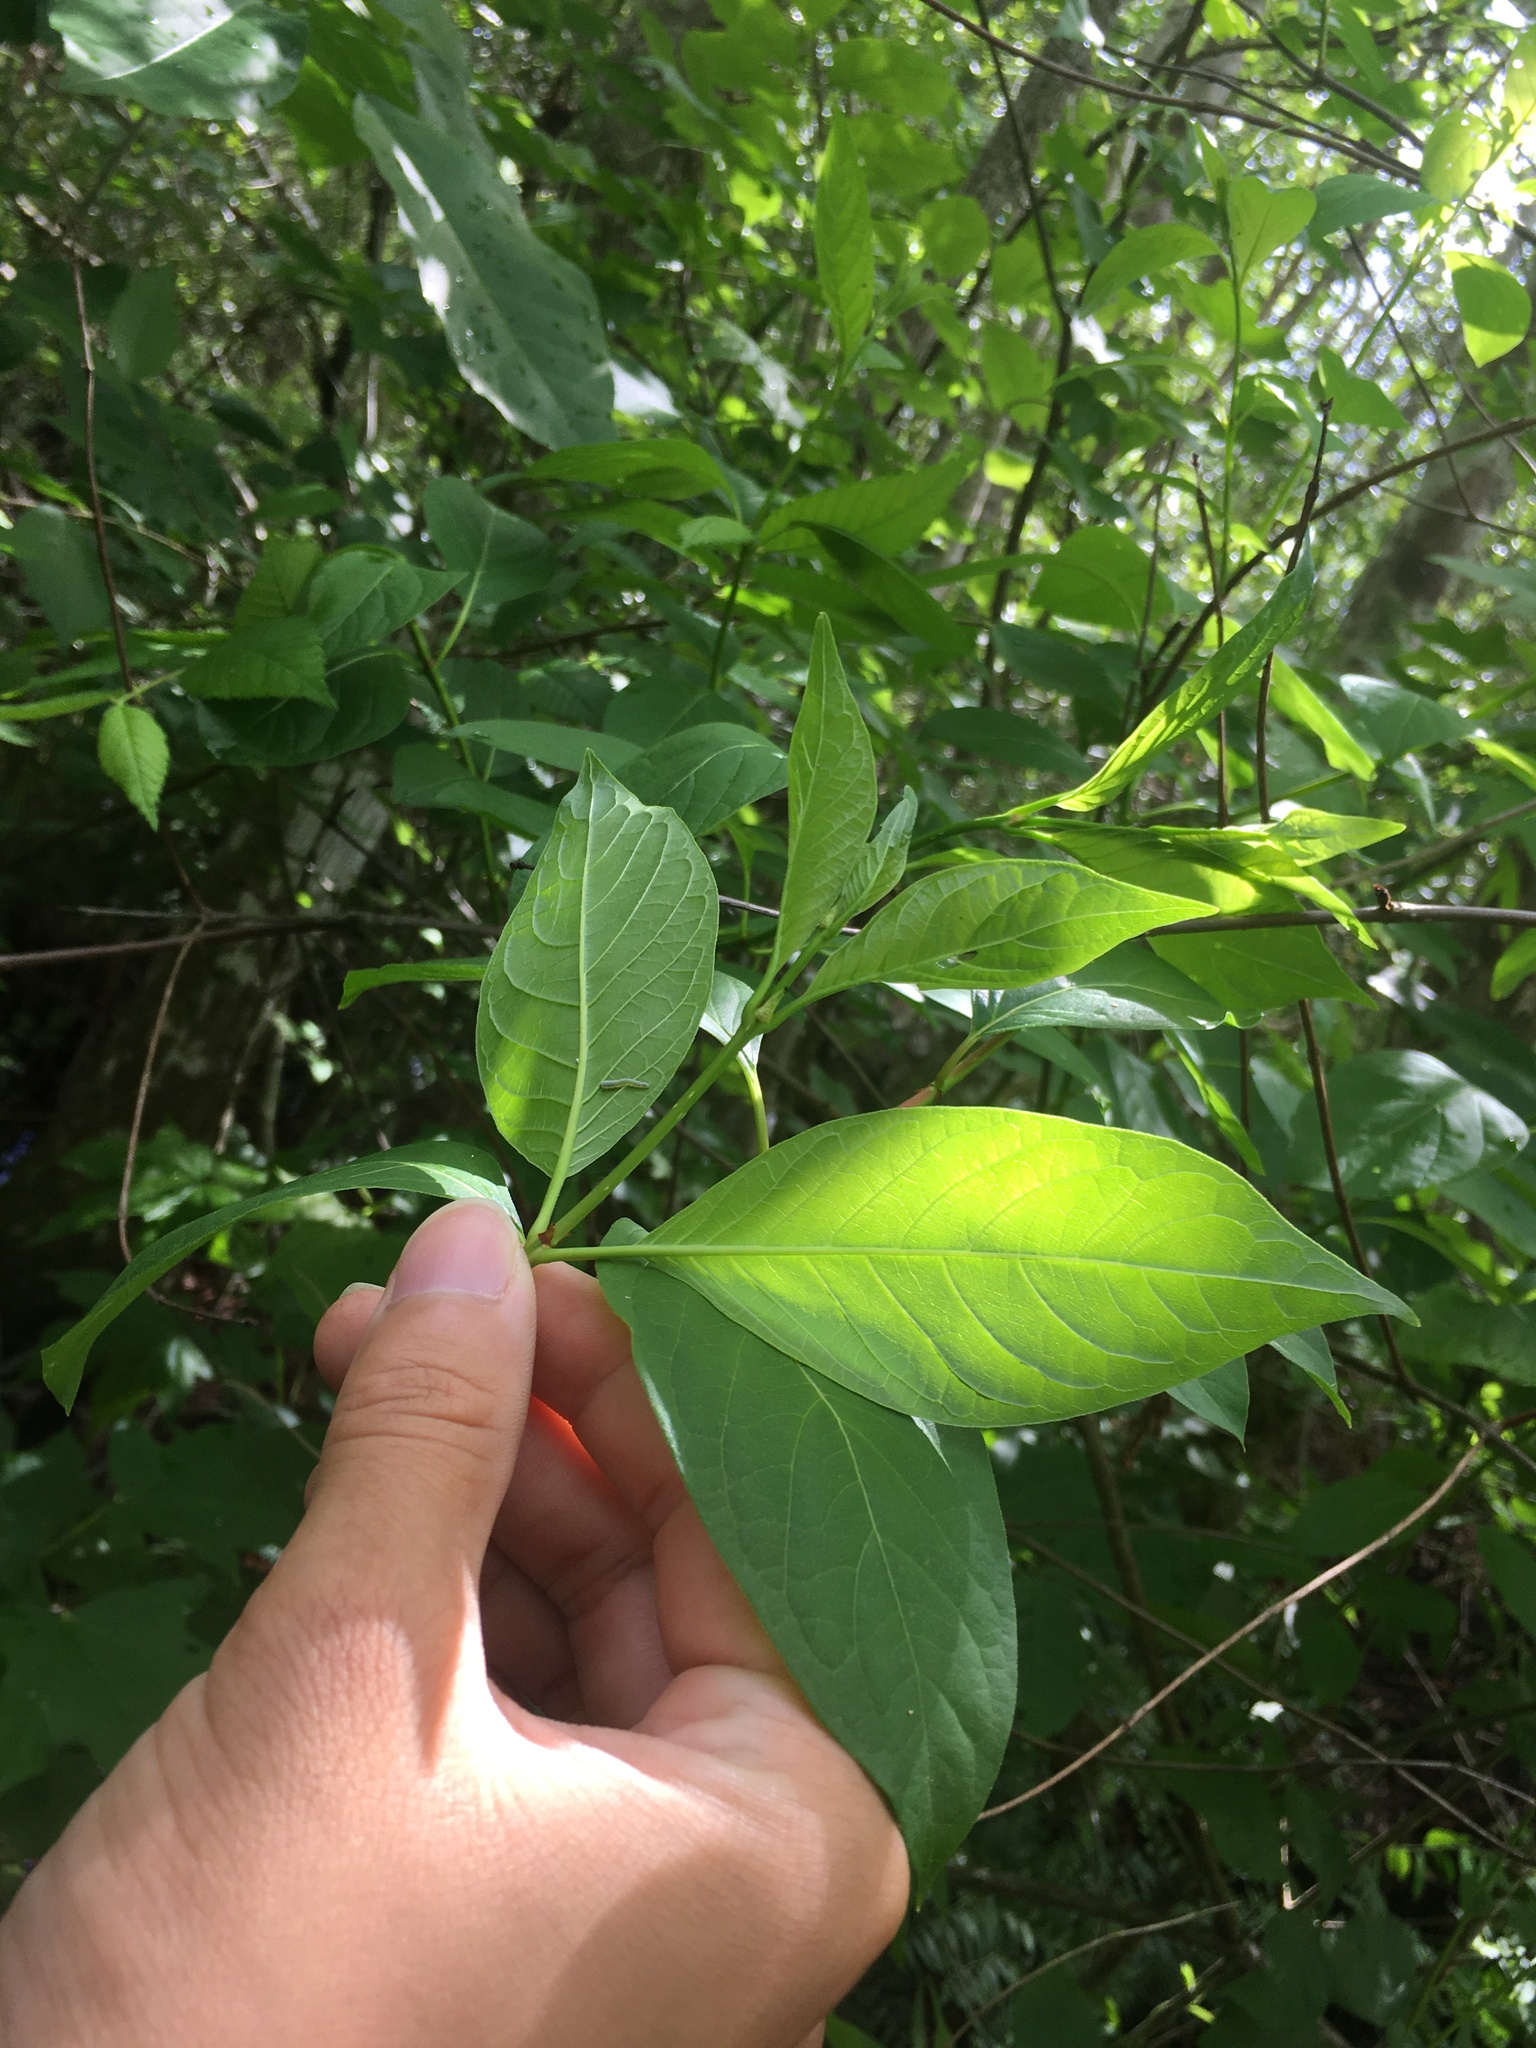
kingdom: Plantae
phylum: Tracheophyta
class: Magnoliopsida
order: Gentianales
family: Rubiaceae
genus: Cephalanthus
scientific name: Cephalanthus occidentalis
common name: Button-willow
